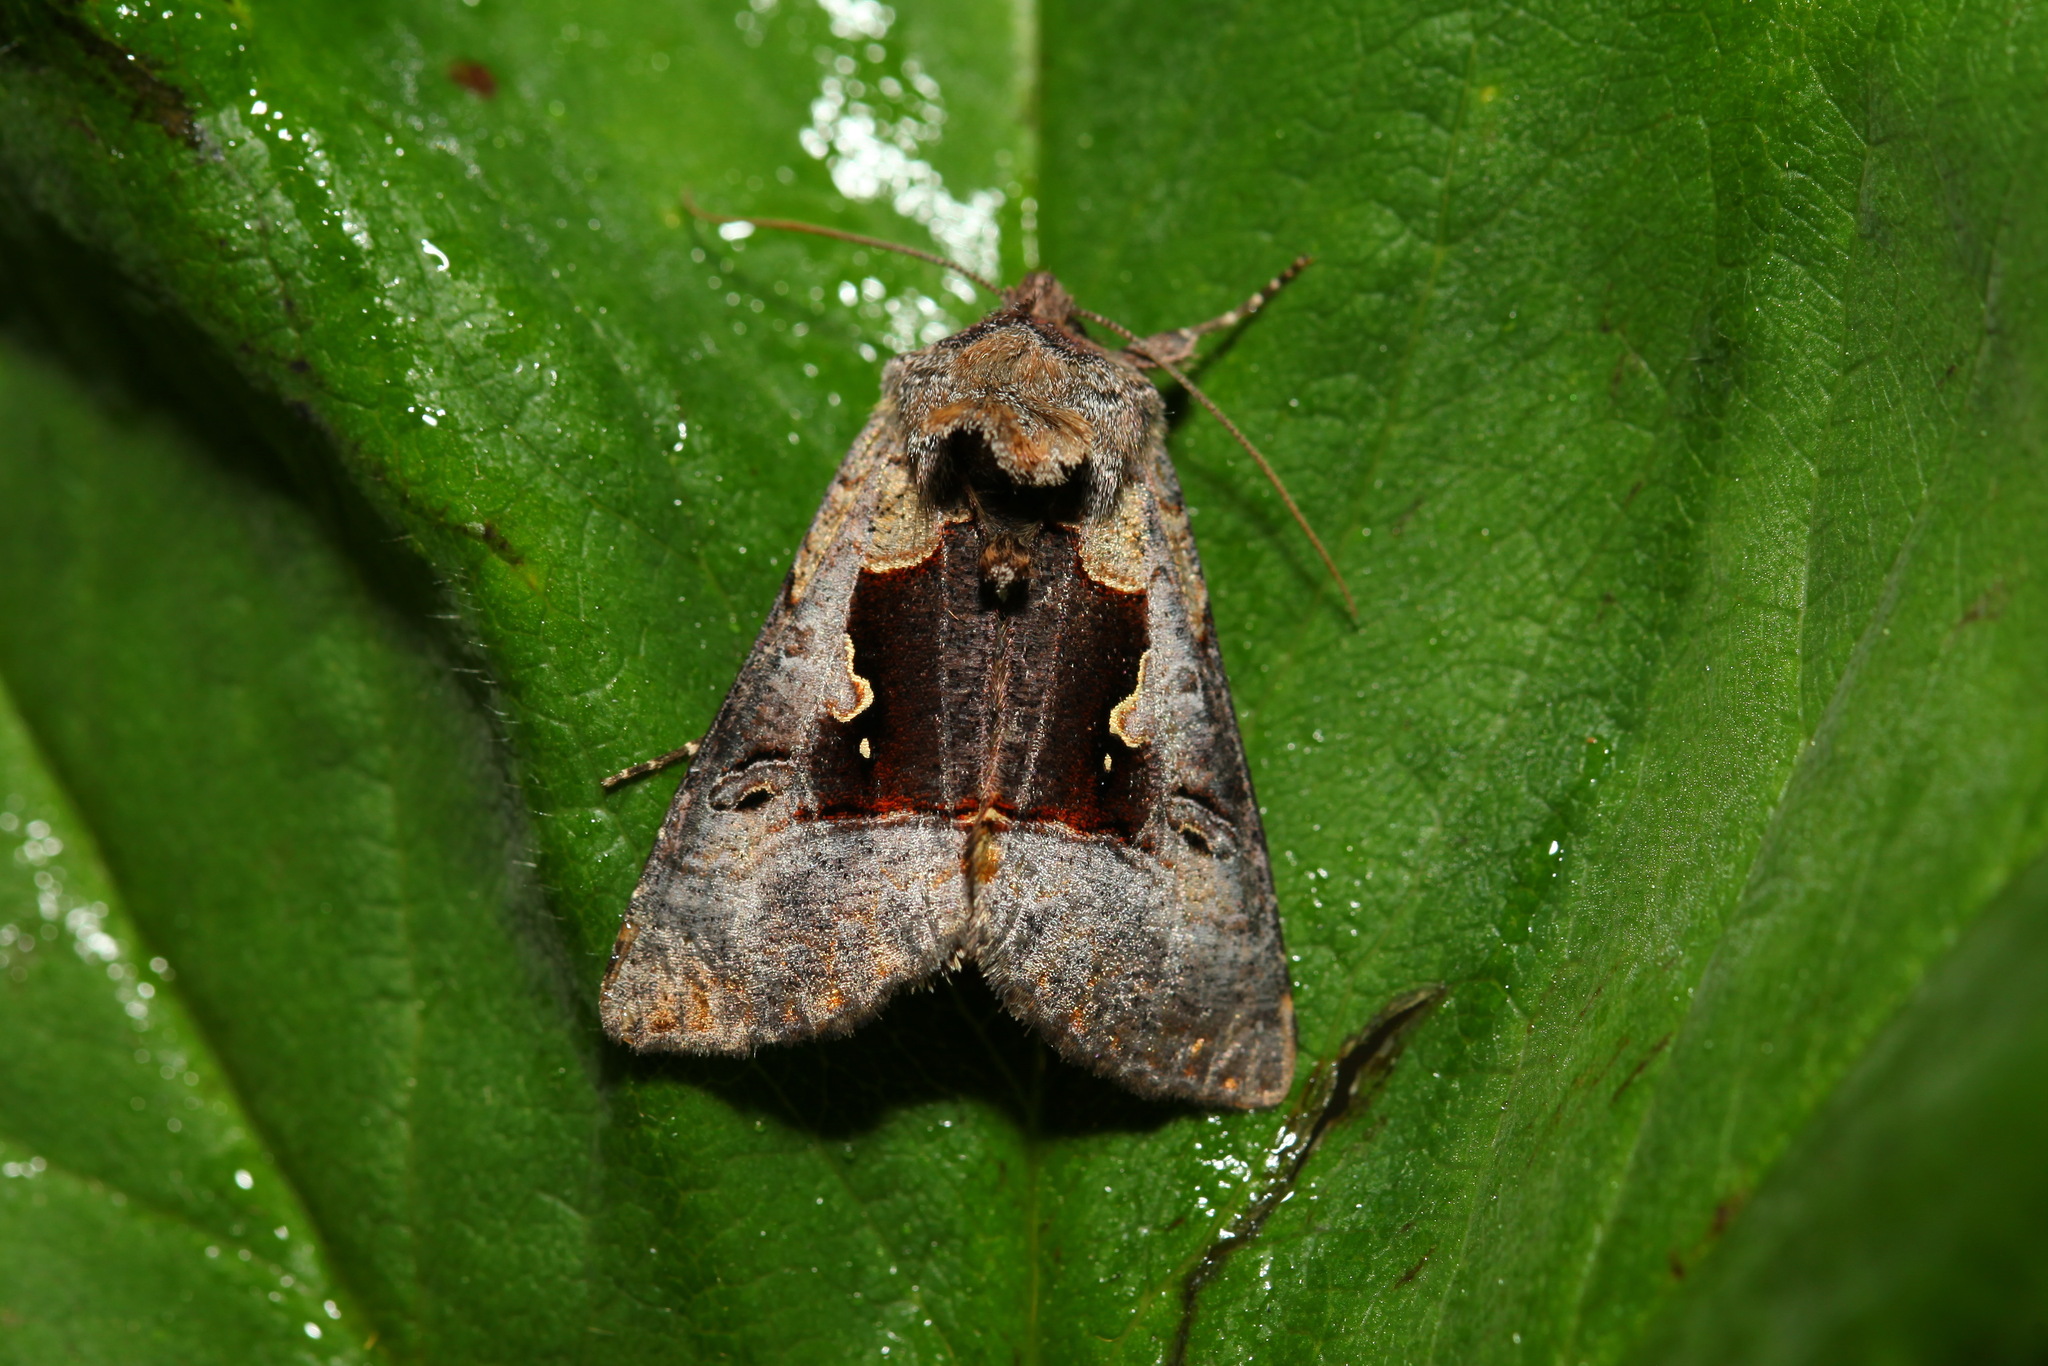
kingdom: Animalia
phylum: Arthropoda
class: Insecta
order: Lepidoptera
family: Noctuidae
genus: Syngrapha
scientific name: Syngrapha diasema
